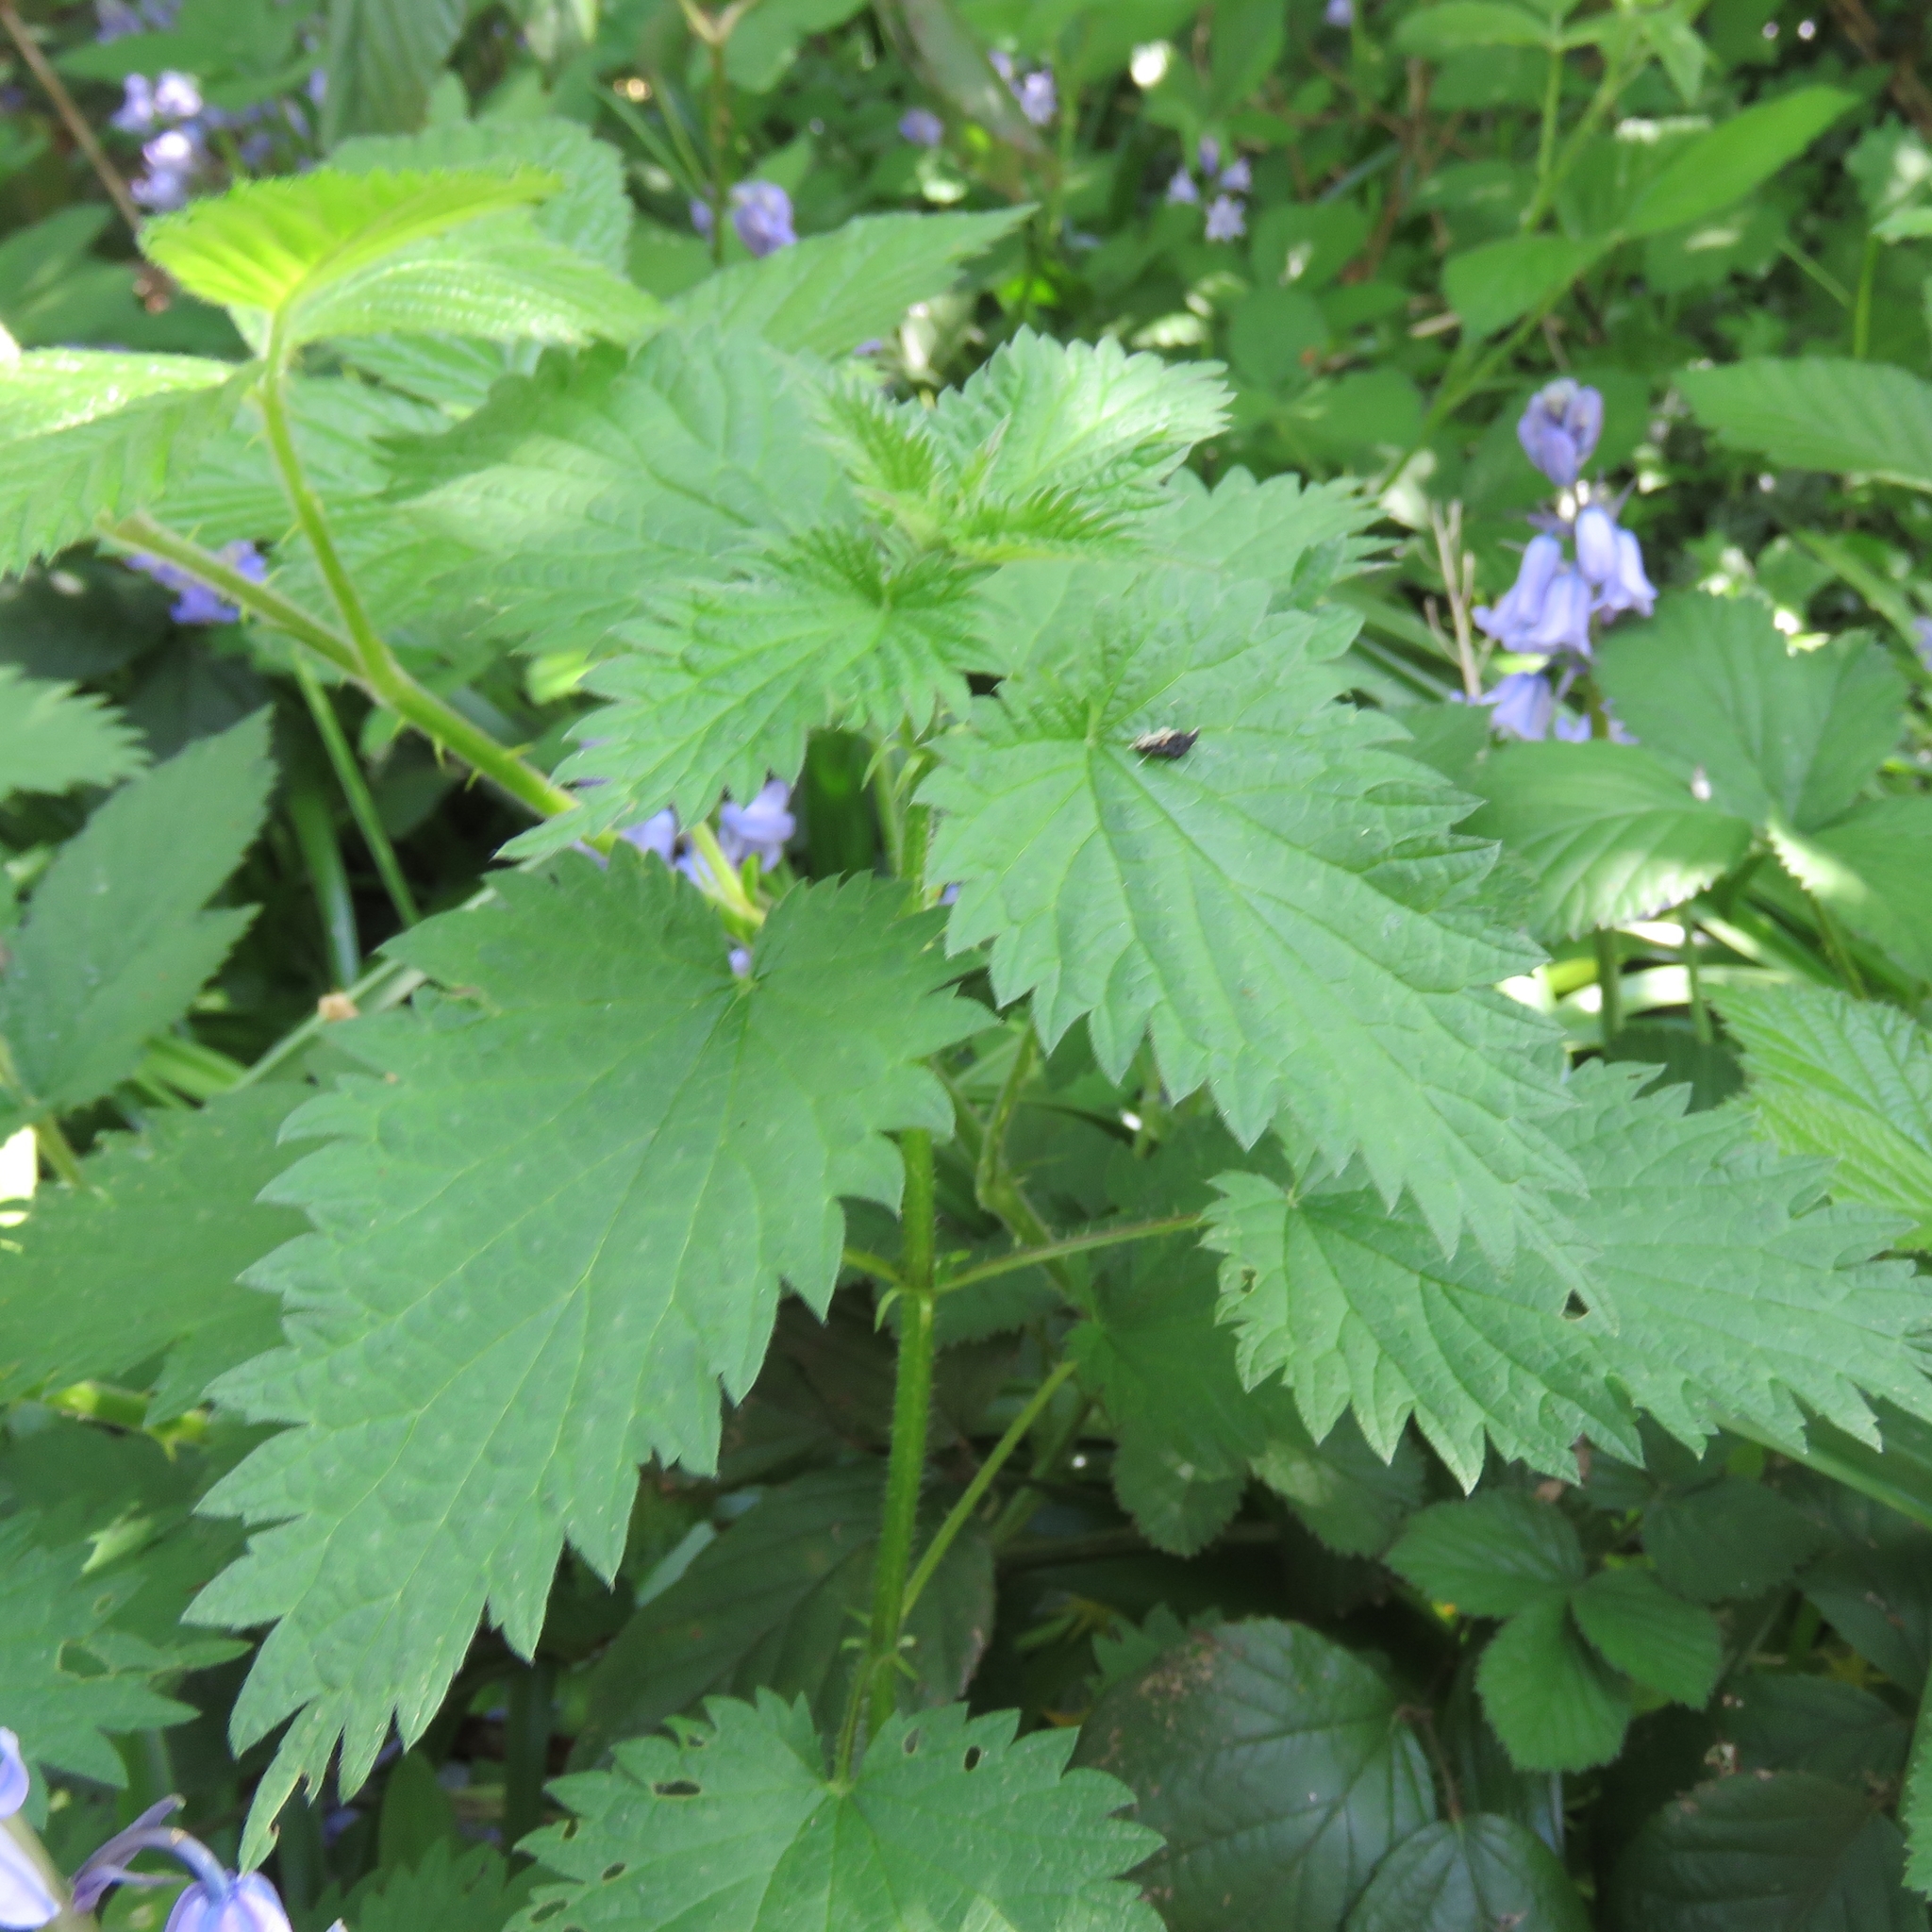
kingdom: Plantae
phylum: Tracheophyta
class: Magnoliopsida
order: Rosales
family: Urticaceae
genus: Urtica
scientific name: Urtica dioica
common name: Common nettle
